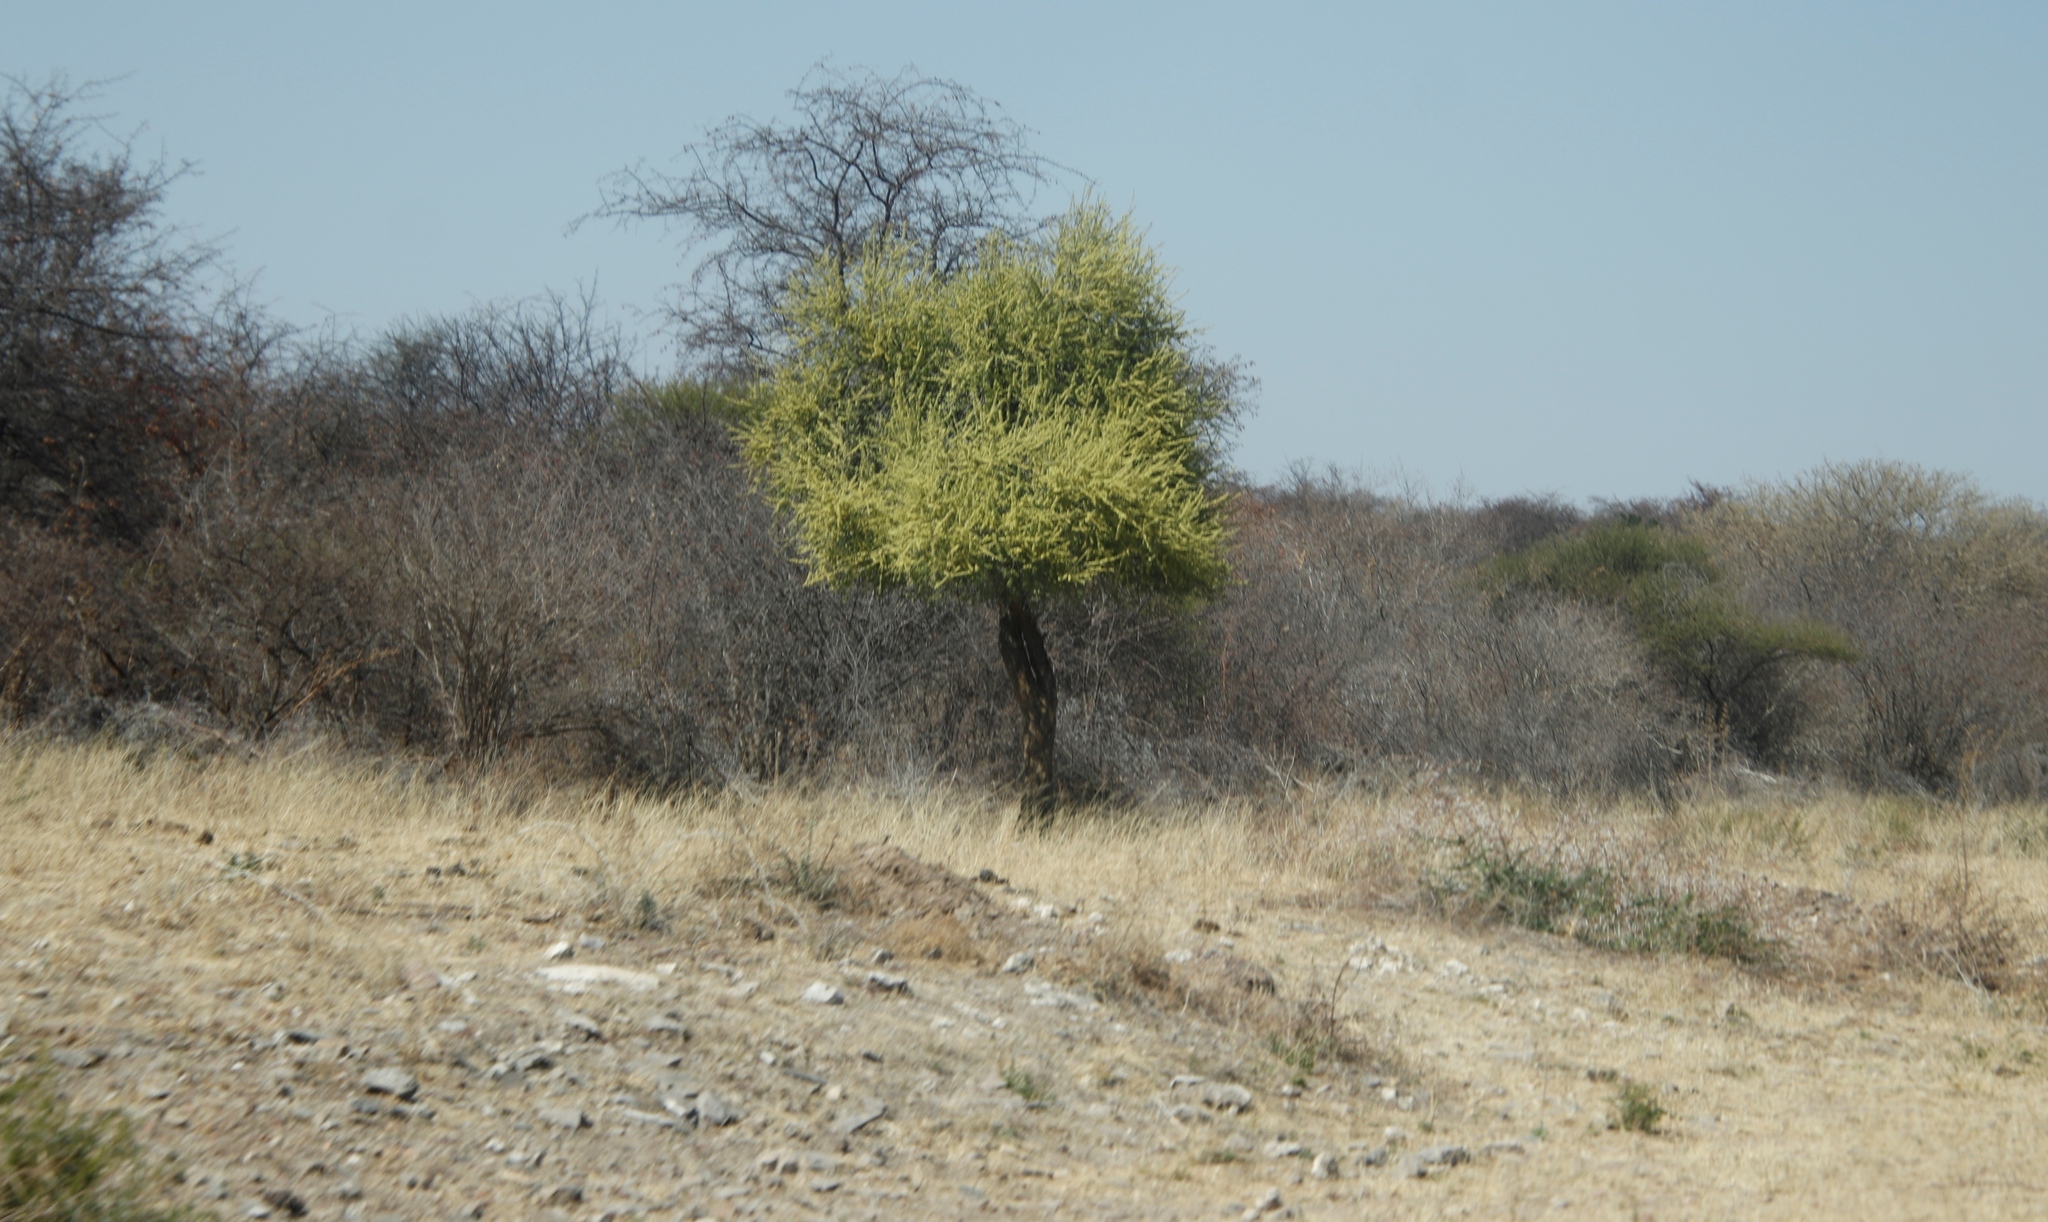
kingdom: Plantae
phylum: Tracheophyta
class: Magnoliopsida
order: Brassicales
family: Capparaceae
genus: Boscia
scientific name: Boscia albitrunca
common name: Caper bush
